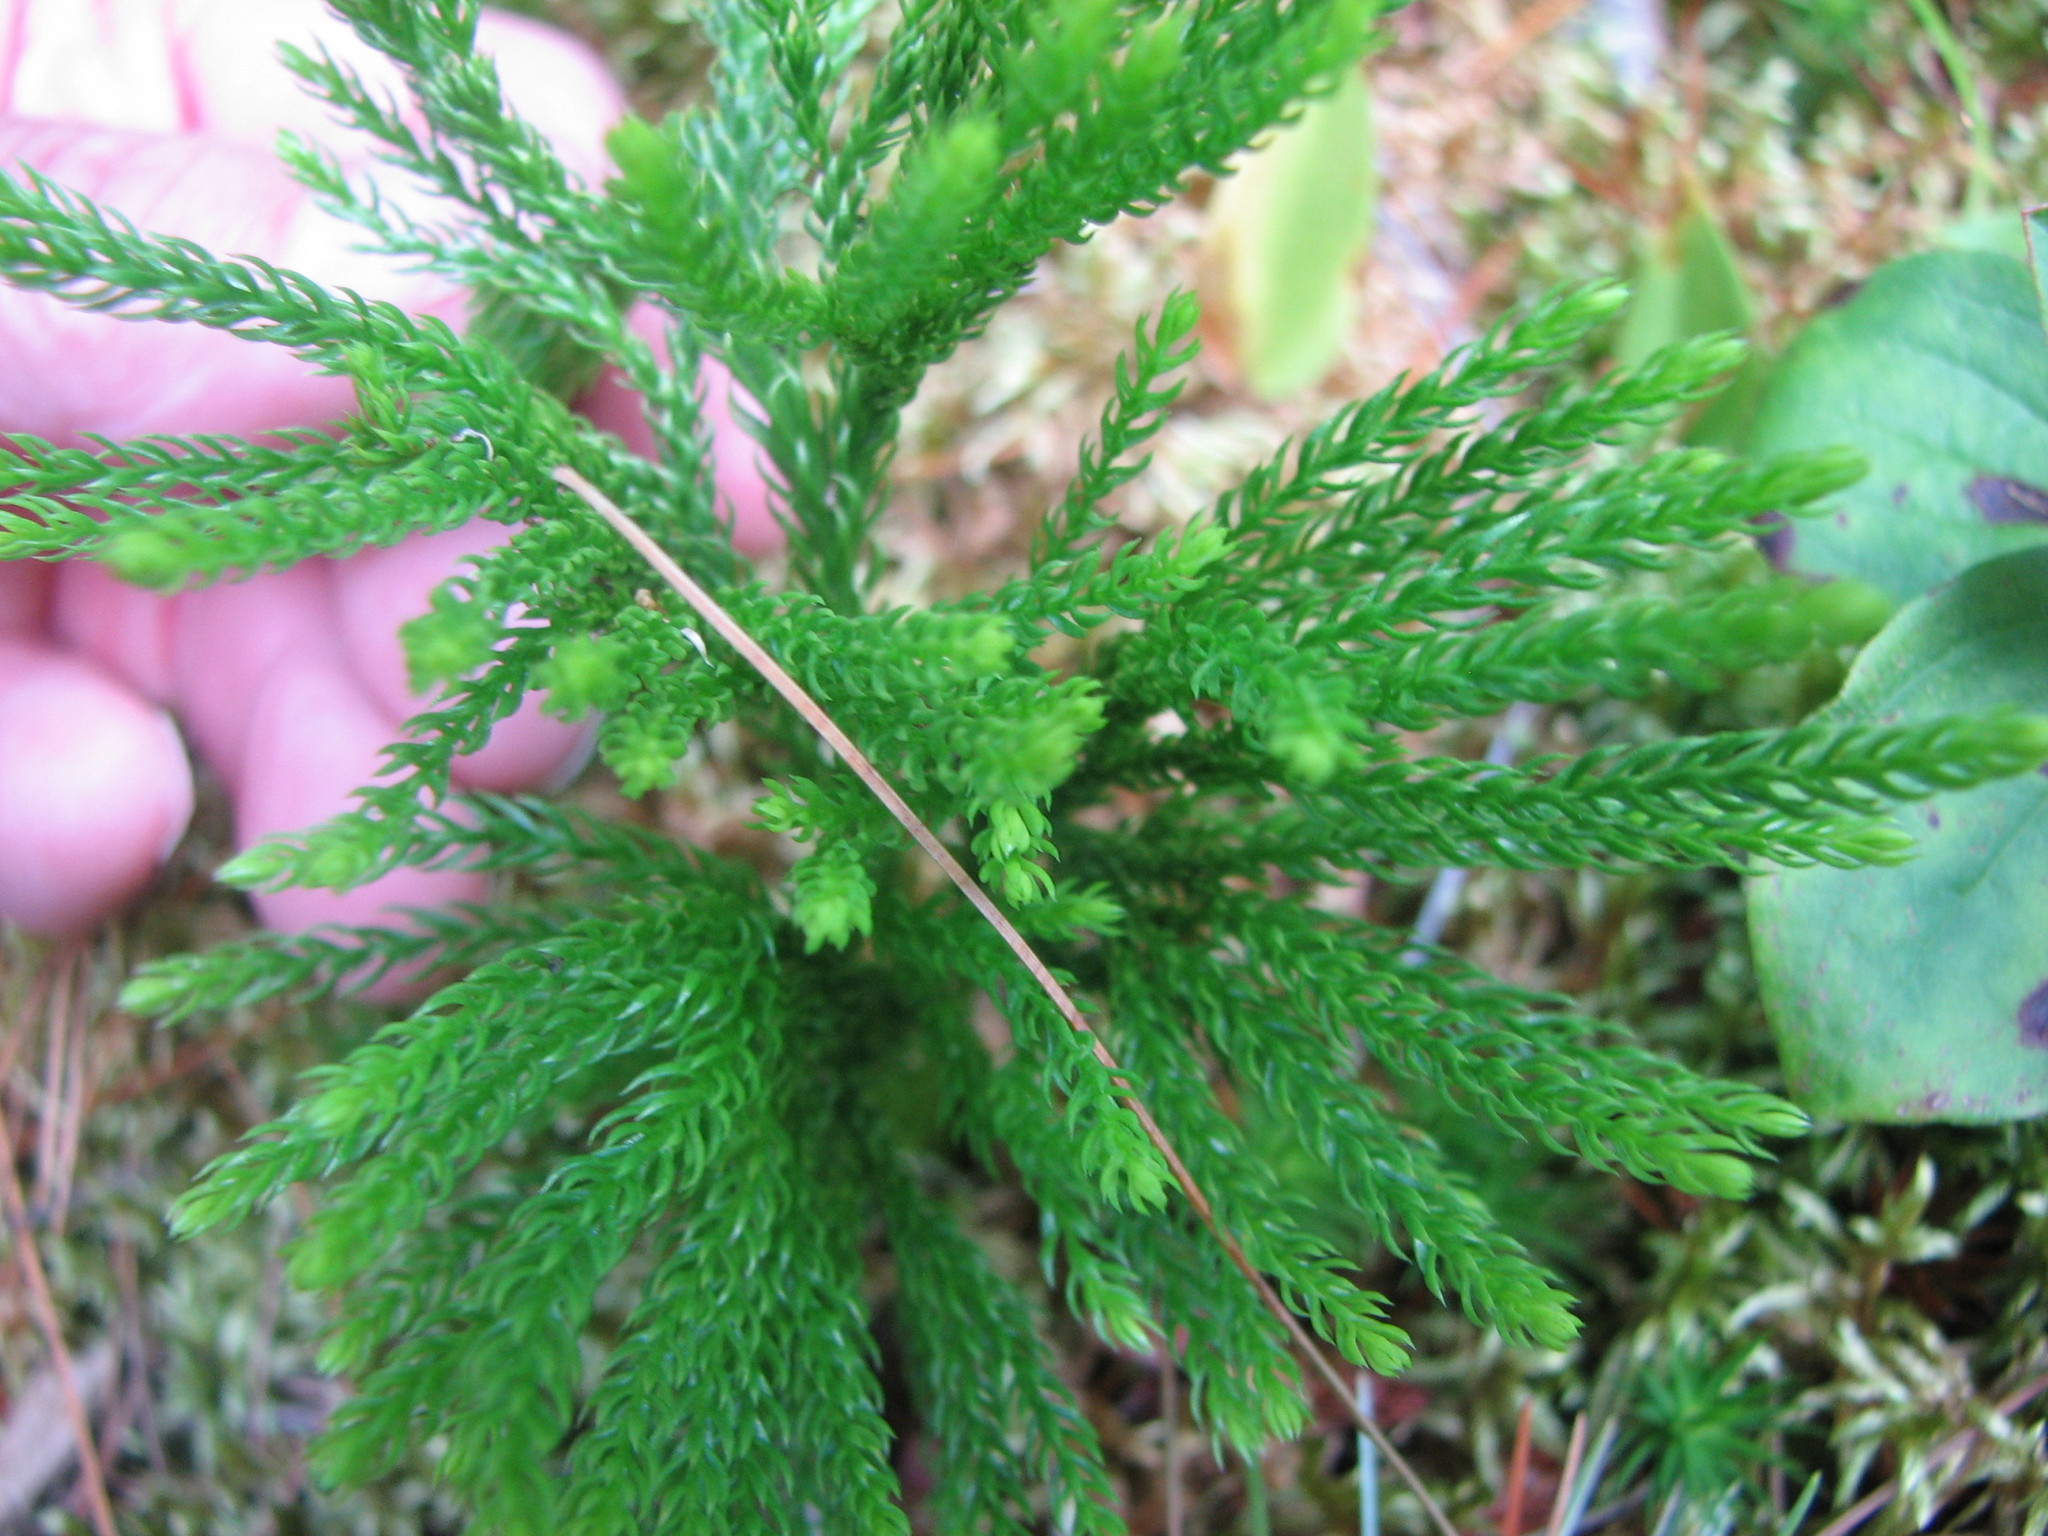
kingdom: Plantae
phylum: Tracheophyta
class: Lycopodiopsida
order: Lycopodiales
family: Lycopodiaceae
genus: Dendrolycopodium
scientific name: Dendrolycopodium hickeyi
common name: Hickey's clubmoss
